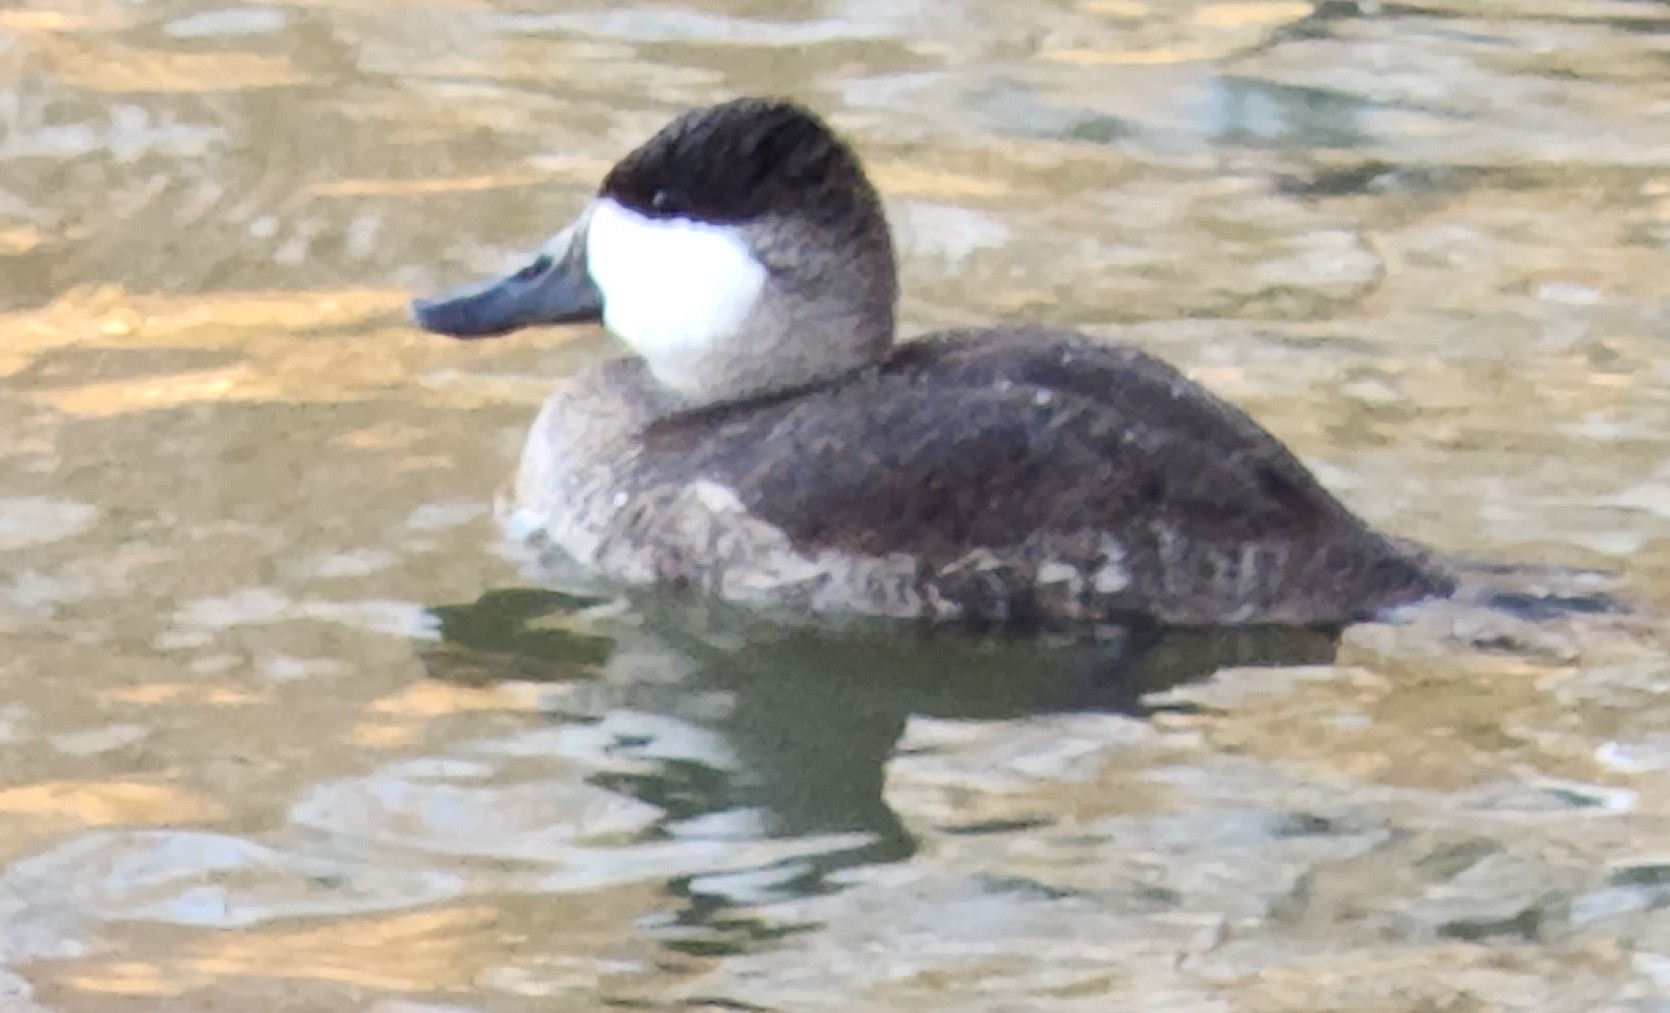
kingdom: Animalia
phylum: Chordata
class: Aves
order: Anseriformes
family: Anatidae
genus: Oxyura
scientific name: Oxyura jamaicensis
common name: Ruddy duck
